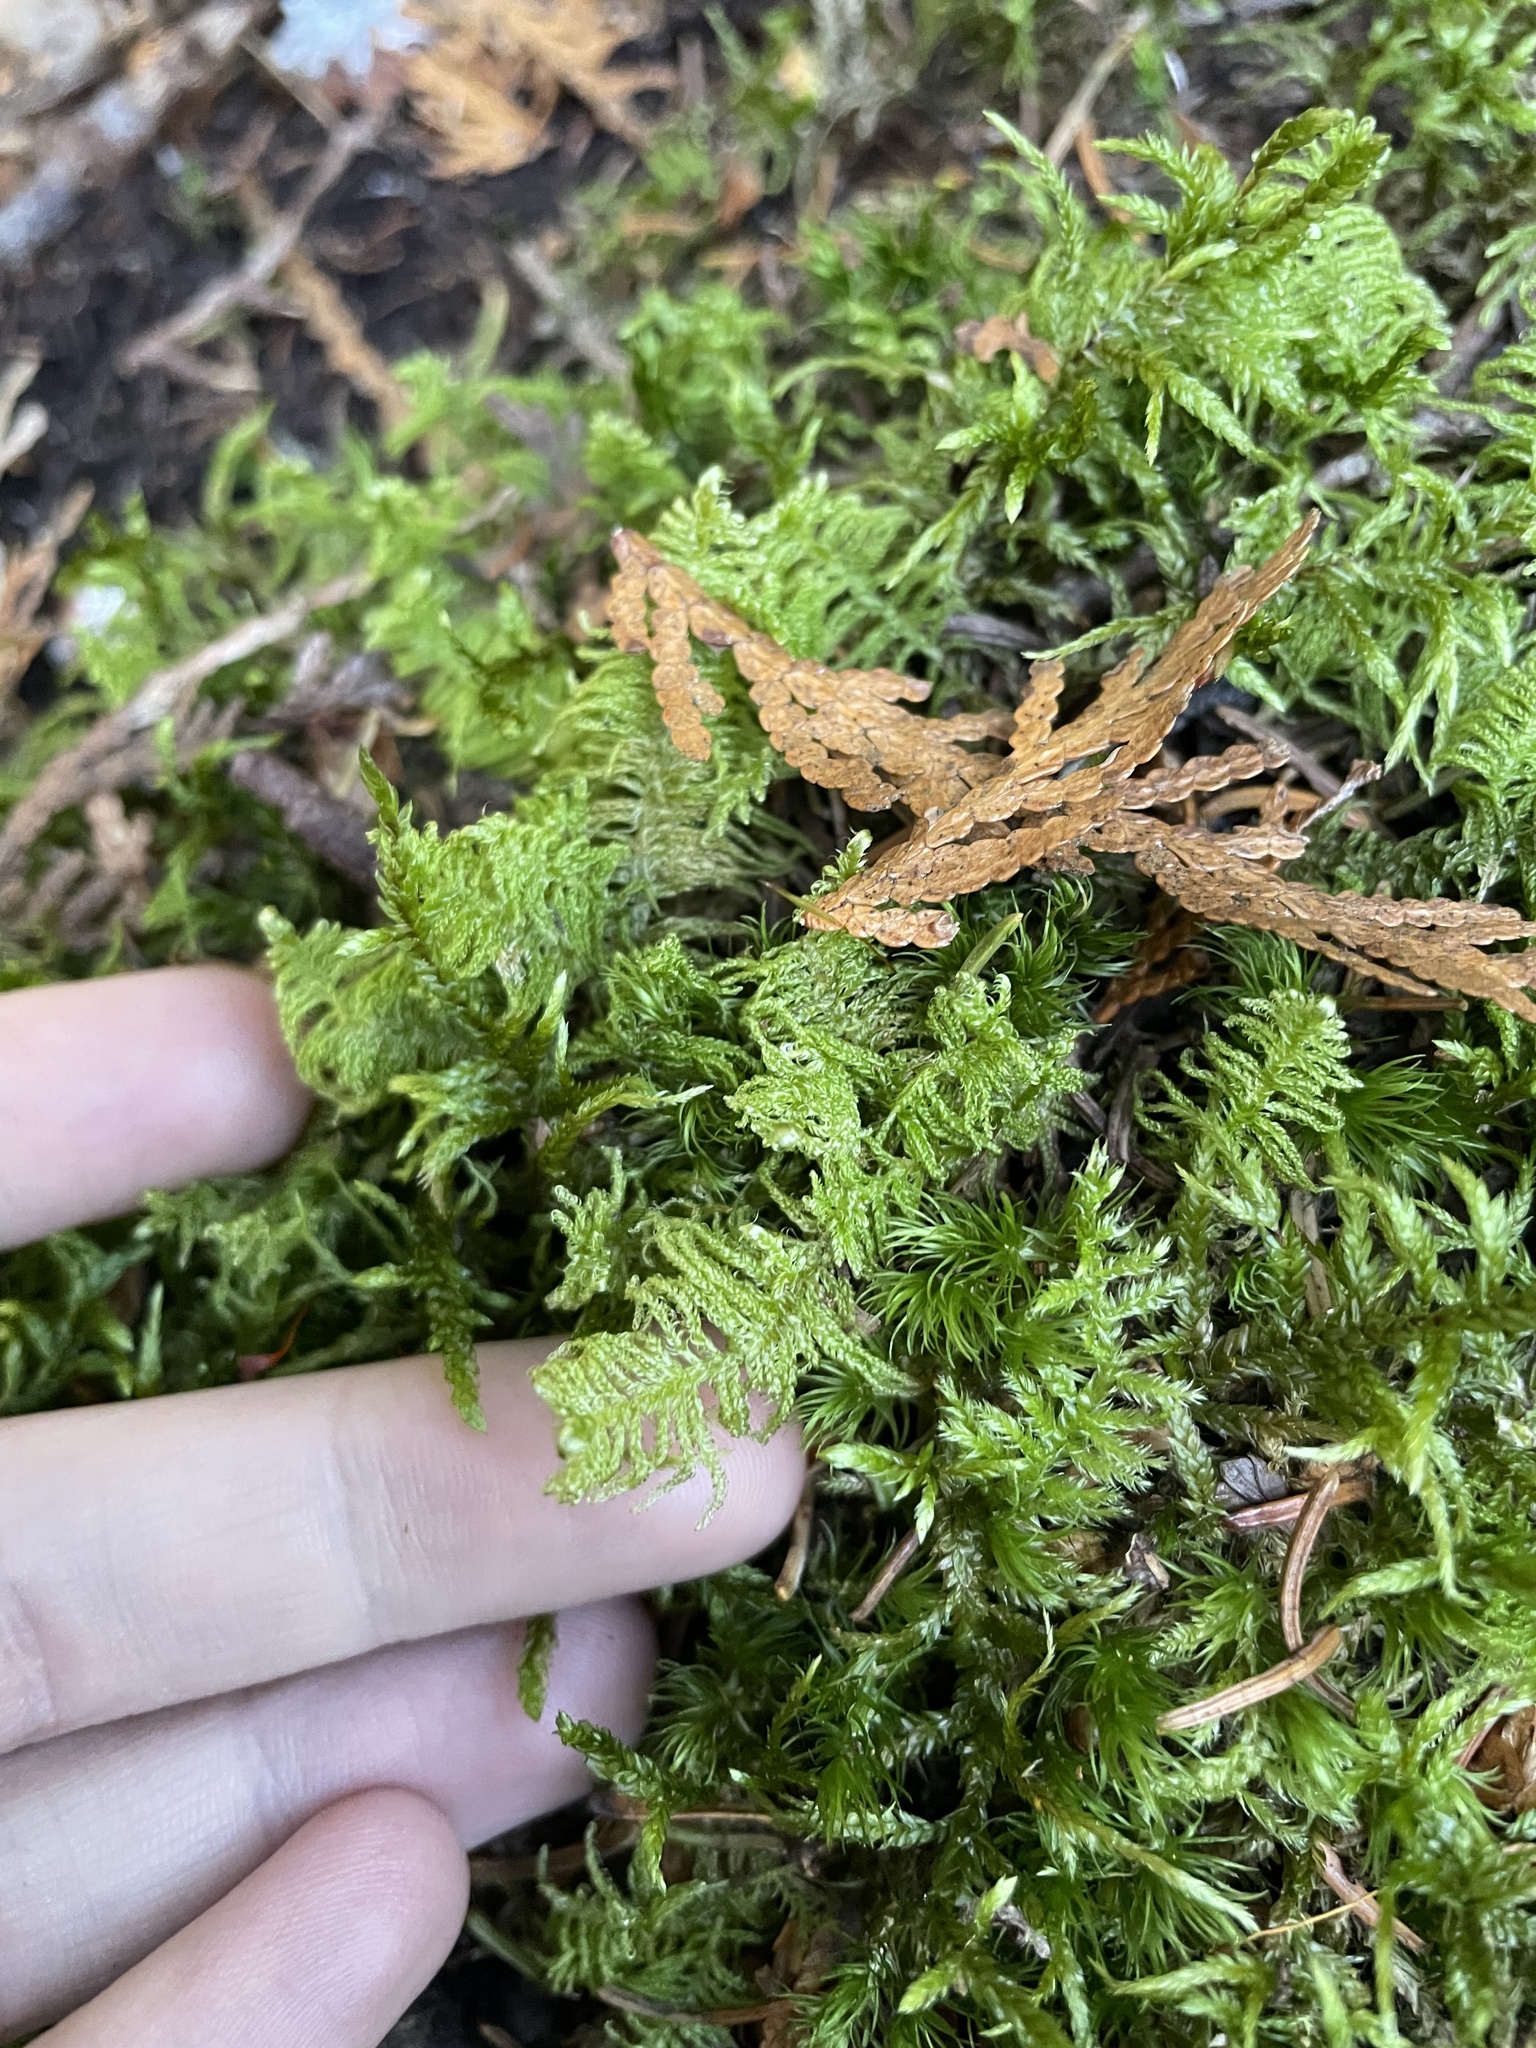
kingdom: Plantae
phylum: Bryophyta
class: Bryopsida
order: Hypnales
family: Pylaisiaceae
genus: Ptilium
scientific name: Ptilium crista-castrensis
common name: Knight's plume moss
